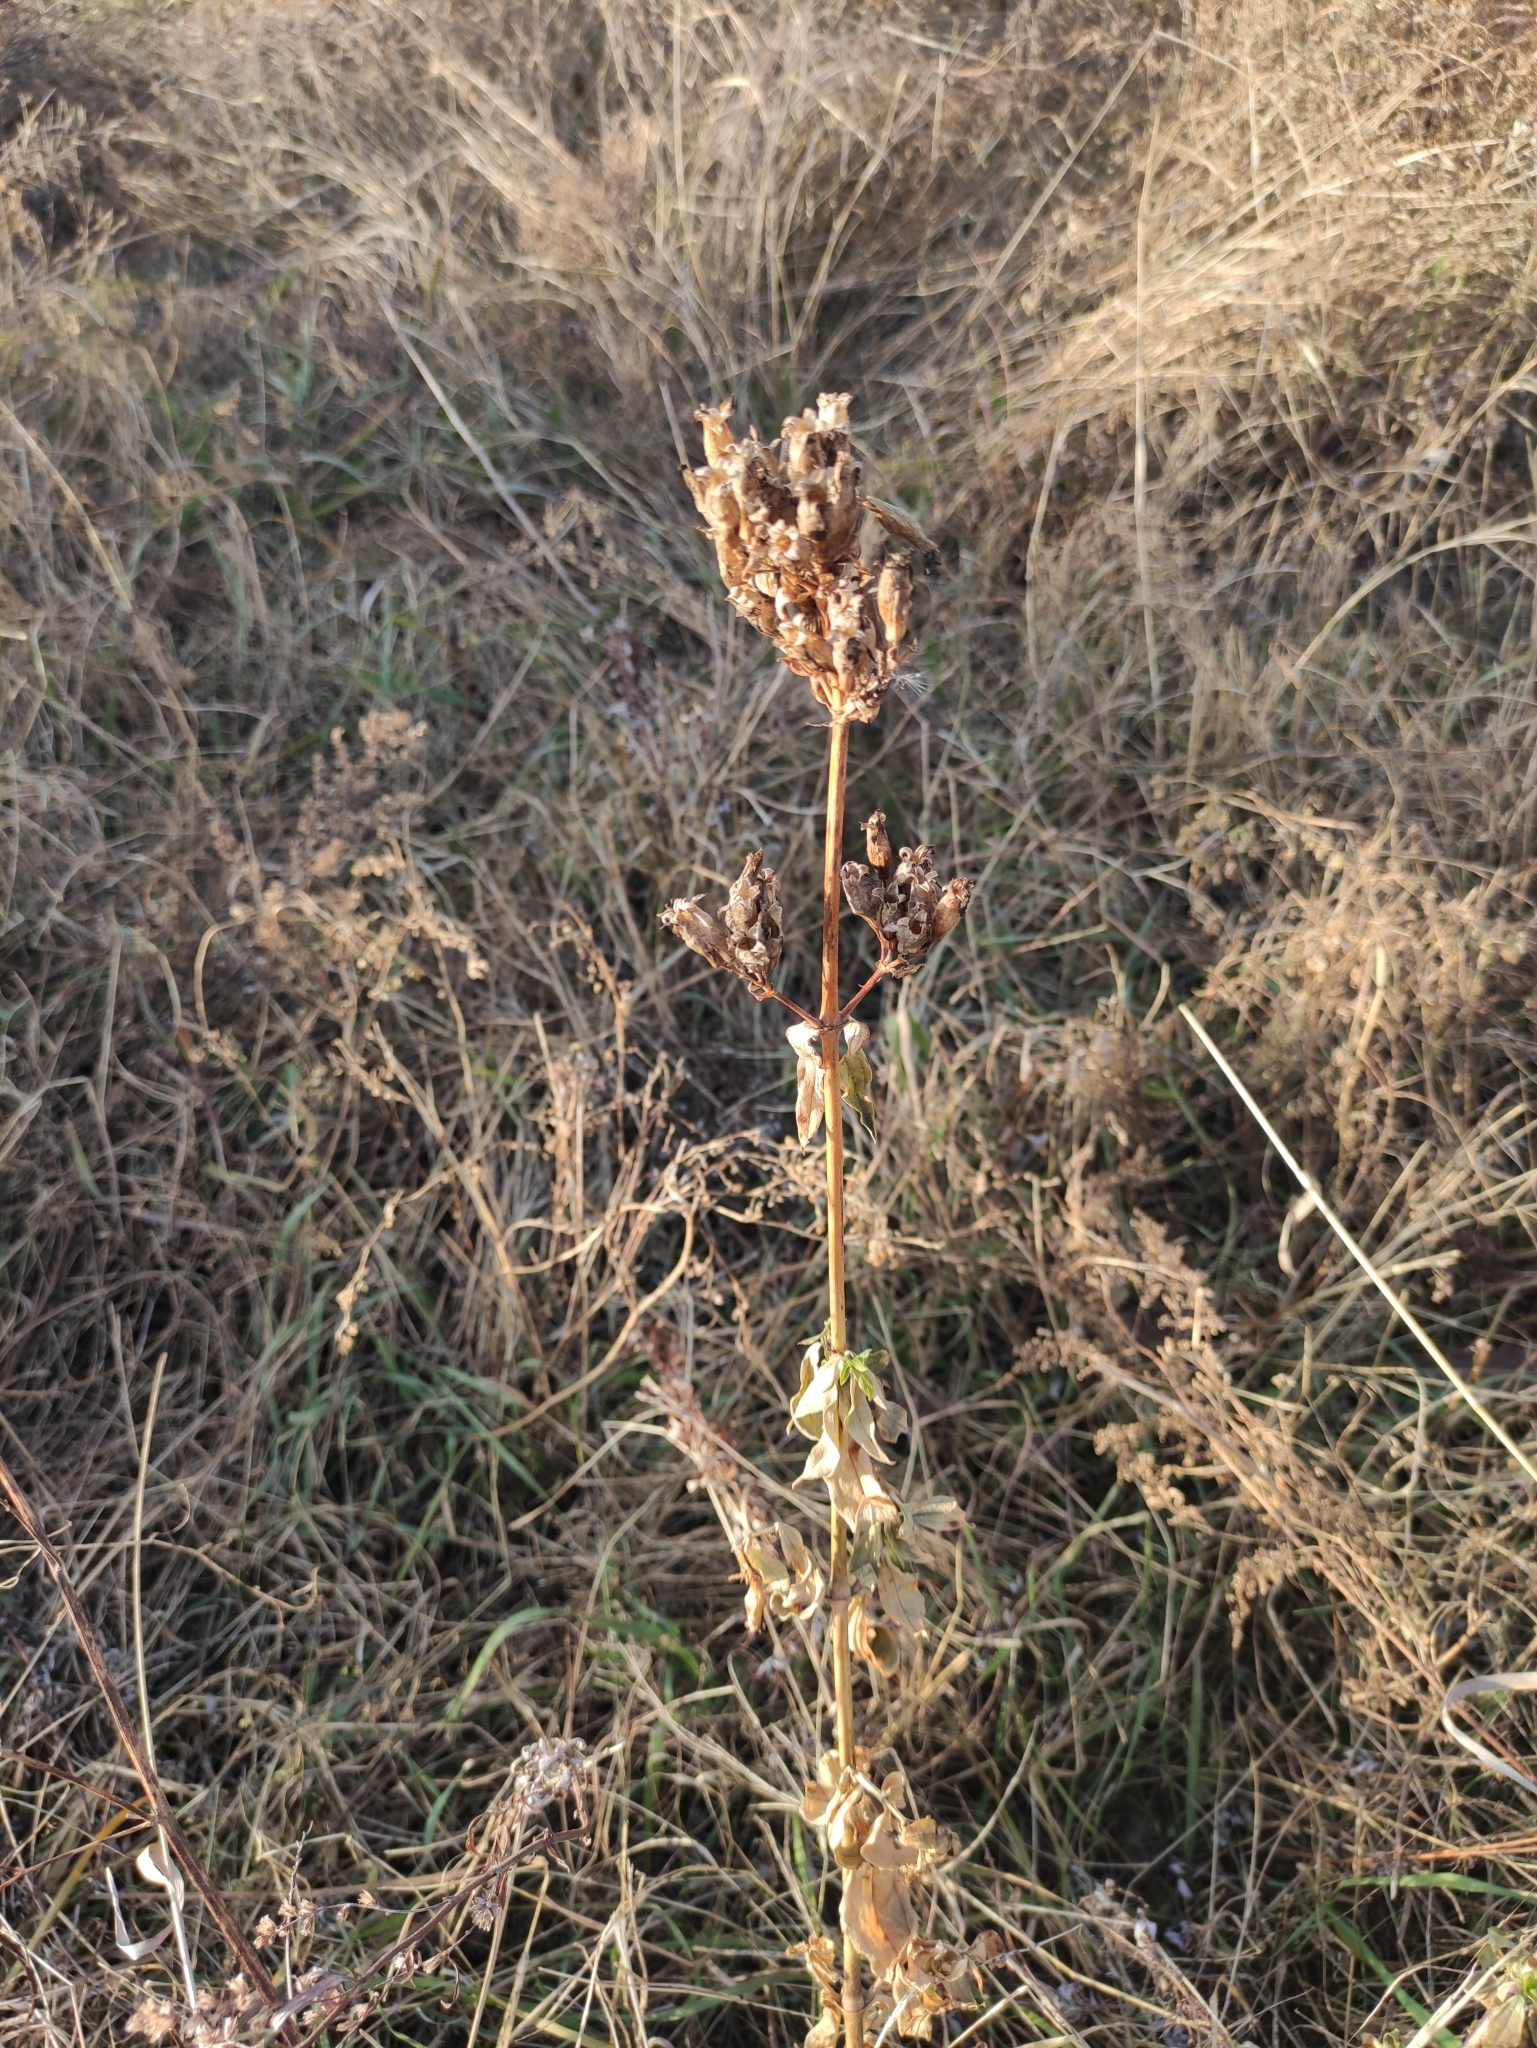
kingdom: Plantae
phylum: Tracheophyta
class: Magnoliopsida
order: Caryophyllales
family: Caryophyllaceae
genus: Saponaria
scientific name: Saponaria officinalis
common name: Soapwort
